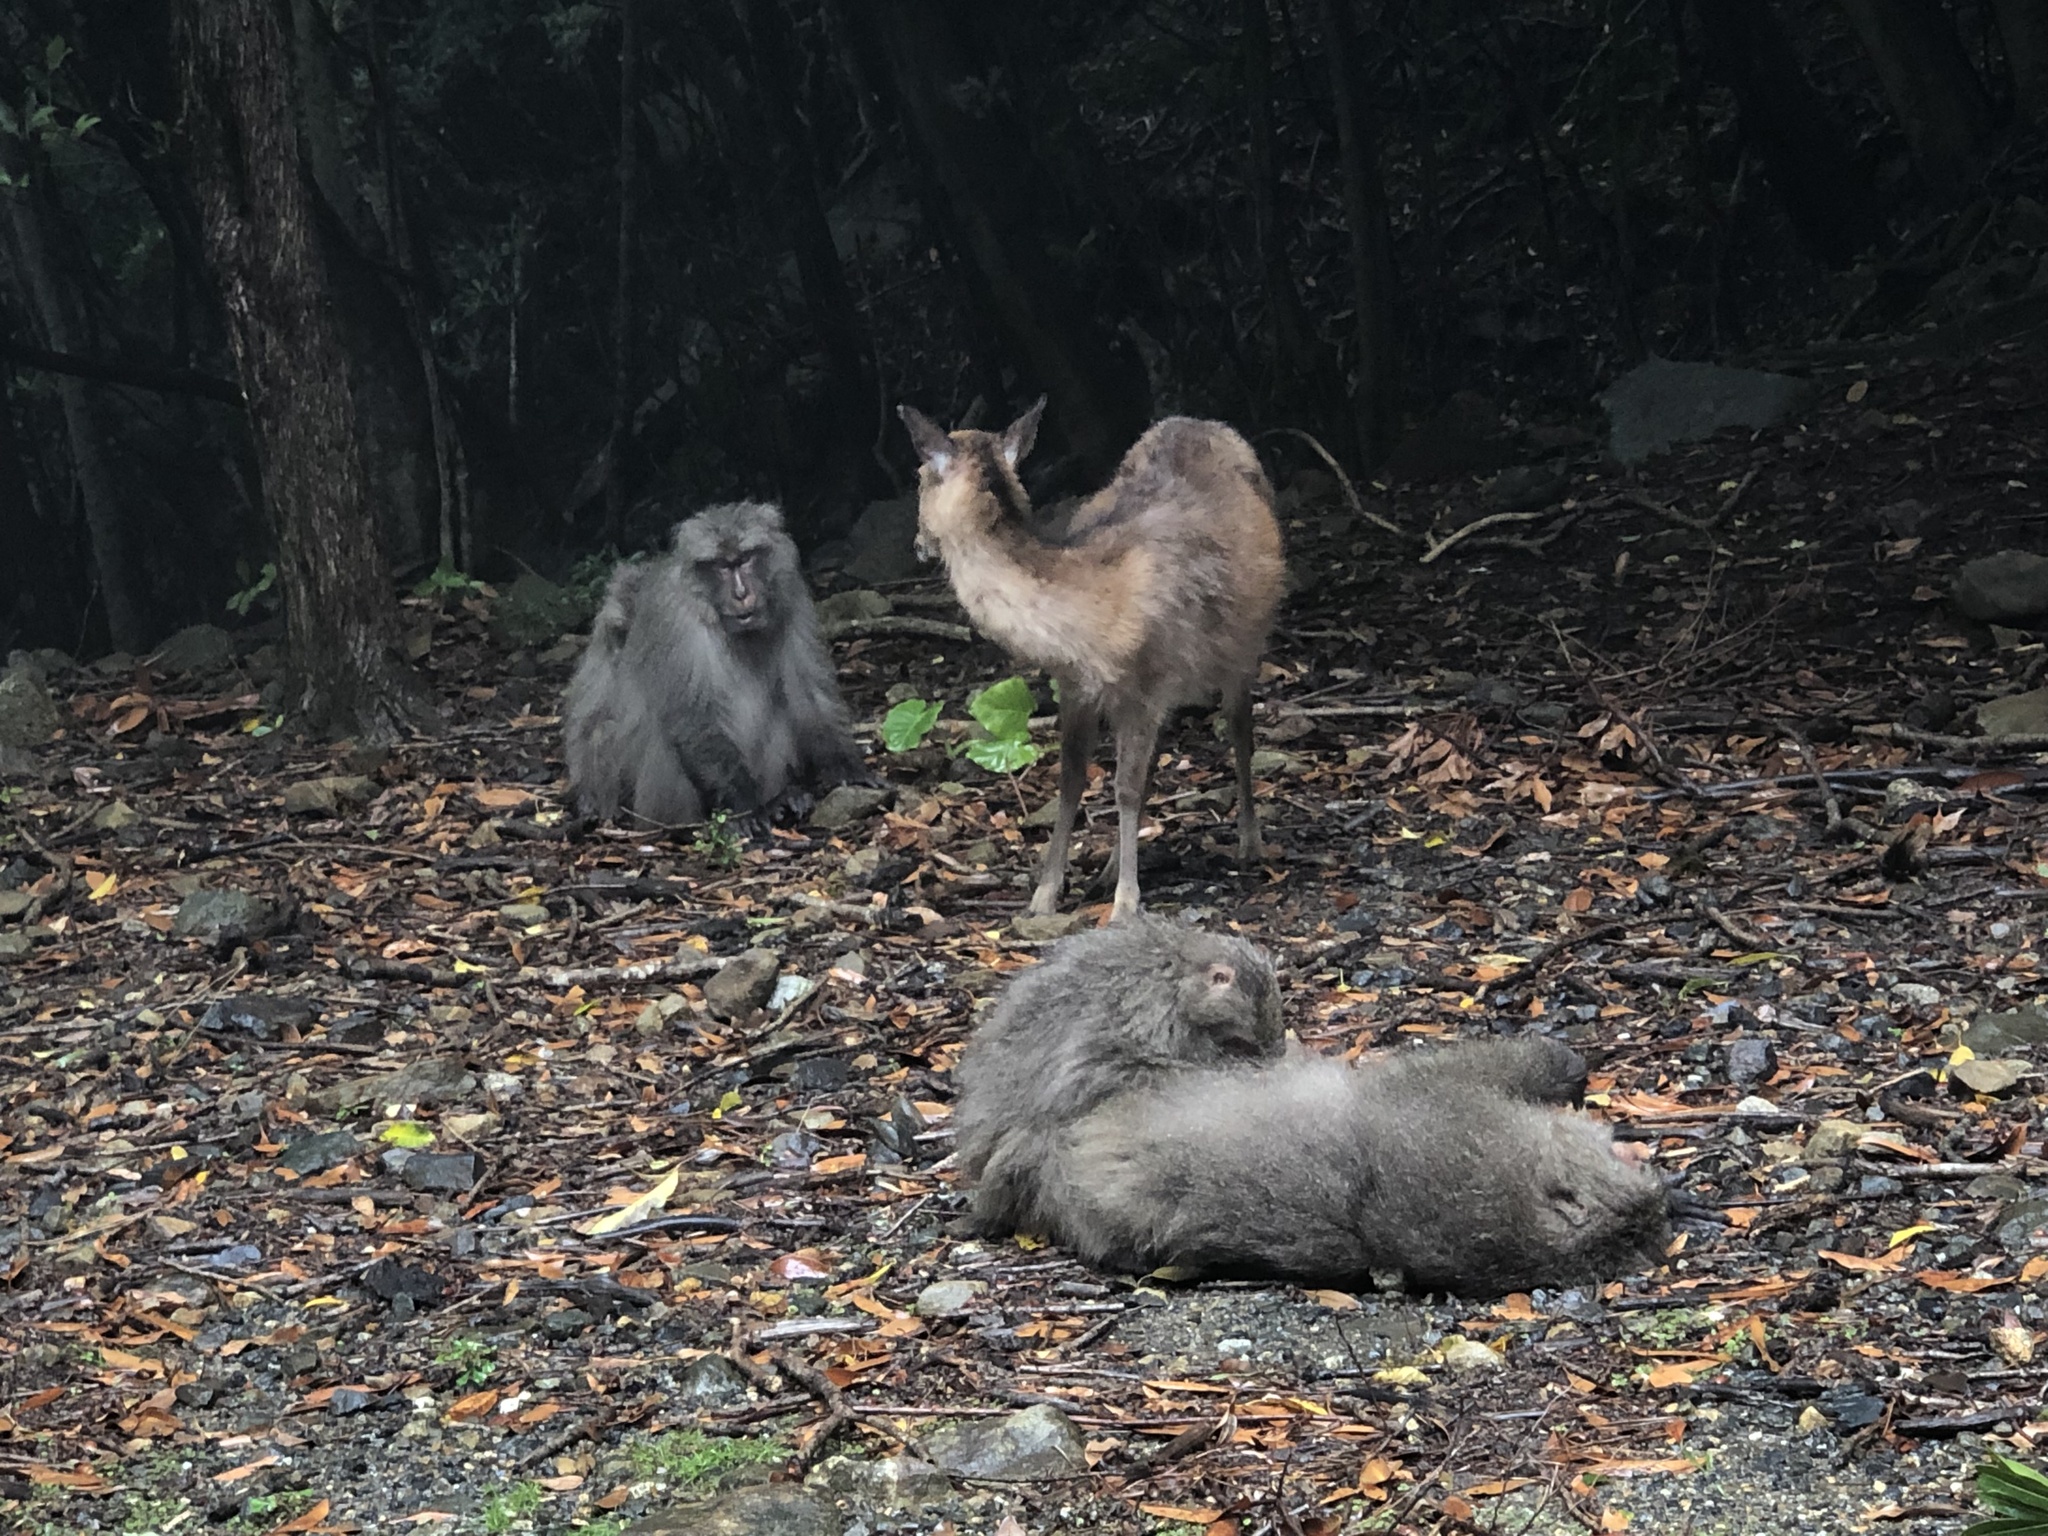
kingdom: Animalia
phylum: Chordata
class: Mammalia
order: Artiodactyla
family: Cervidae
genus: Cervus
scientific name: Cervus nippon
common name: Sika deer
